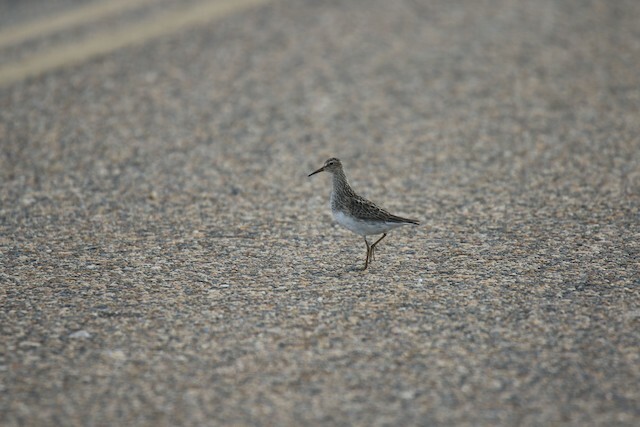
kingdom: Animalia
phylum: Chordata
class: Aves
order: Charadriiformes
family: Scolopacidae
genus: Calidris
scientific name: Calidris melanotos
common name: Pectoral sandpiper
